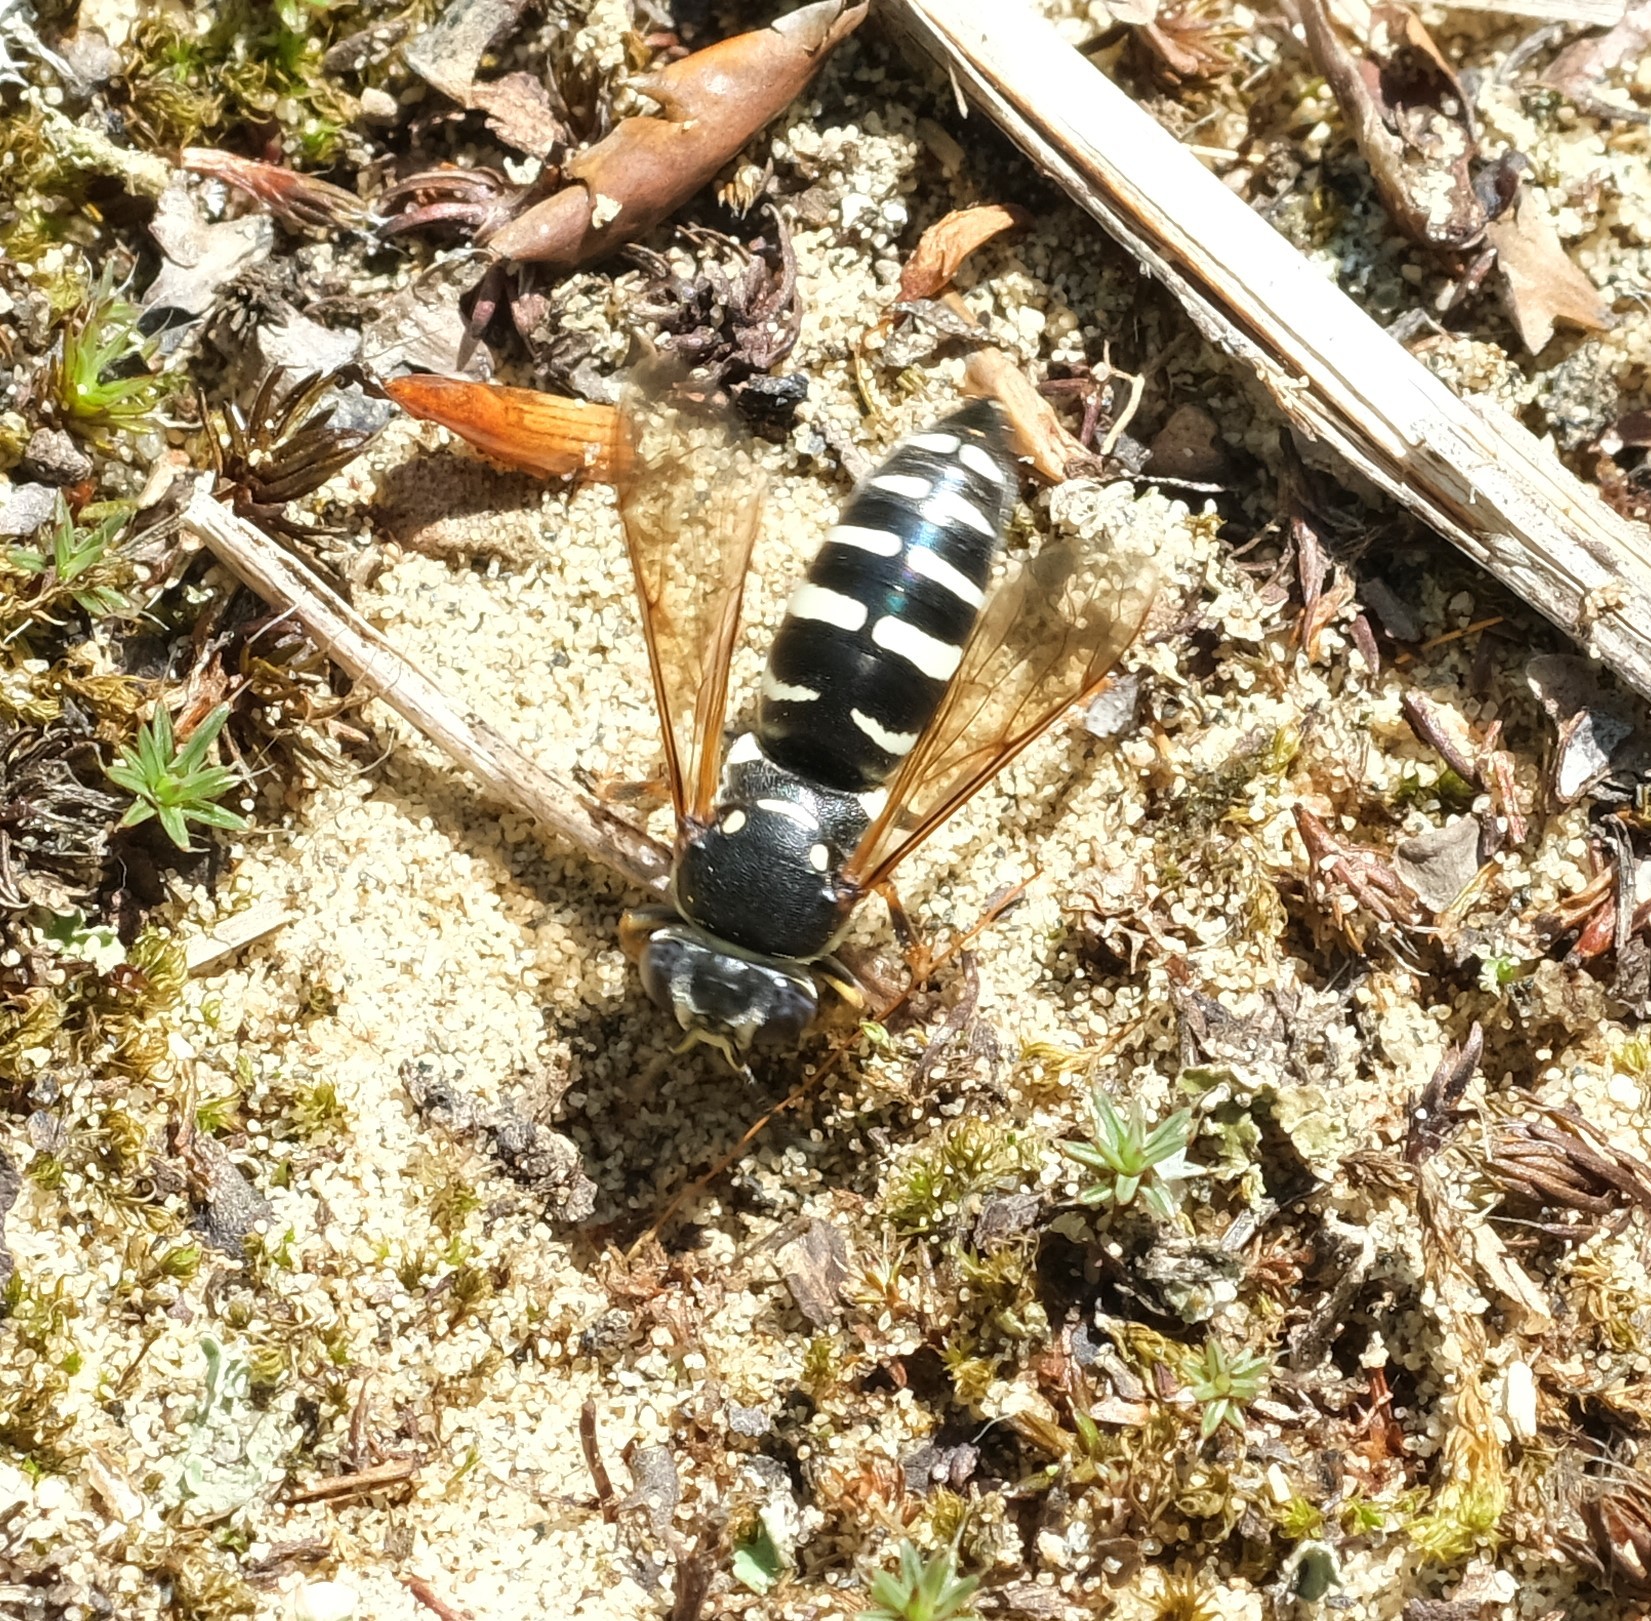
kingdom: Animalia
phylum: Arthropoda
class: Insecta
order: Hymenoptera
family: Crabronidae
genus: Bicyrtes
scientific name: Bicyrtes ventralis
